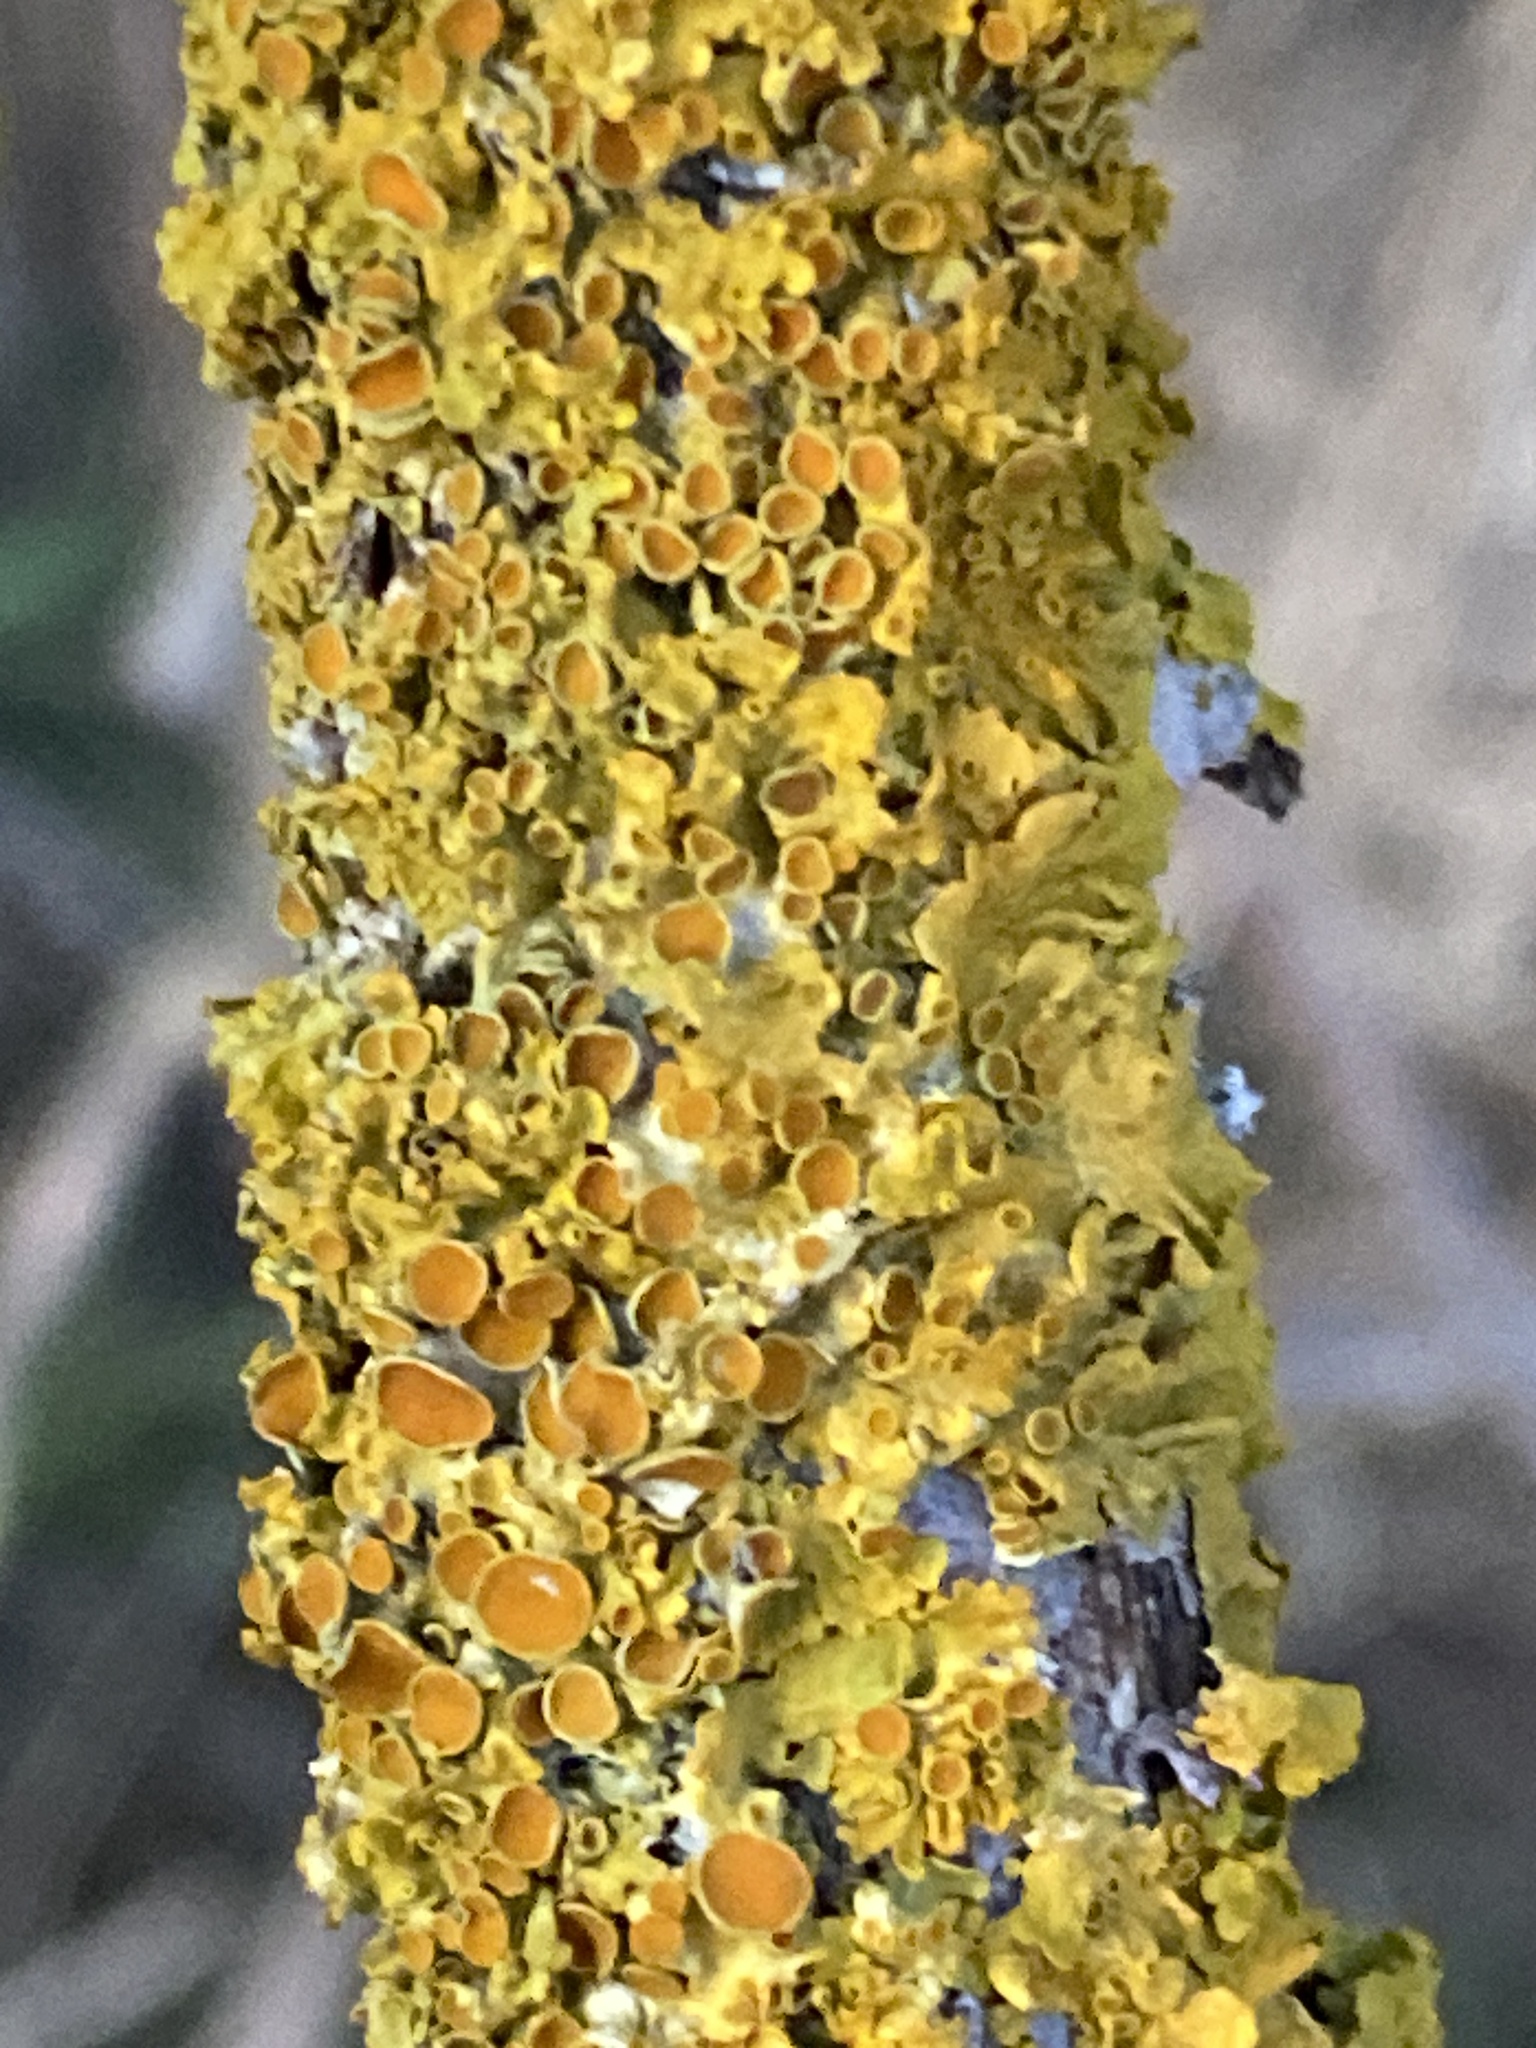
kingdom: Fungi
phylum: Ascomycota
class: Lecanoromycetes
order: Teloschistales
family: Teloschistaceae
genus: Xanthoria
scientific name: Xanthoria parietina
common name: Common orange lichen
